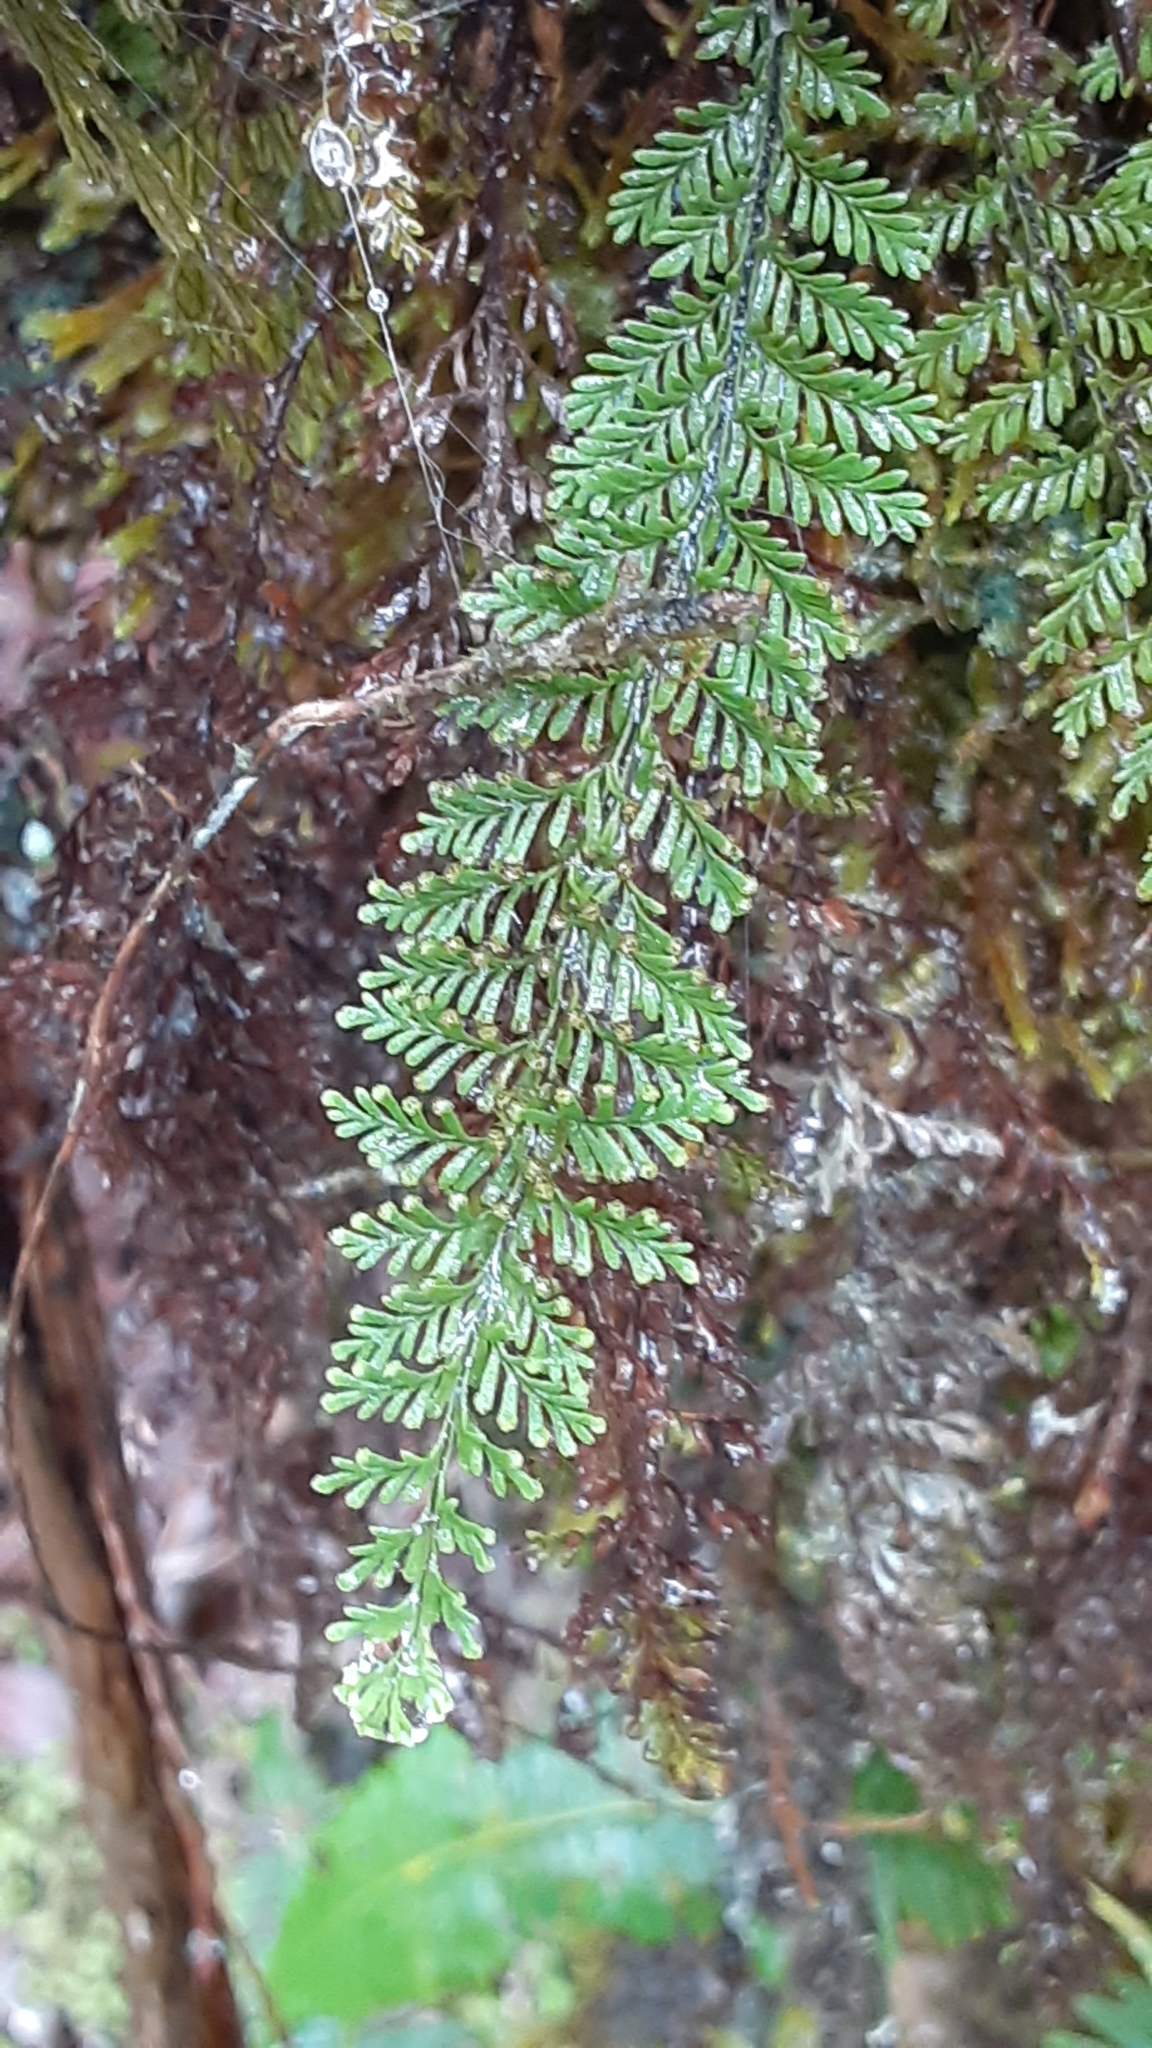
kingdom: Plantae
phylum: Tracheophyta
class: Polypodiopsida
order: Polypodiales
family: Polypodiaceae
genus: Adenophorus
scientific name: Adenophorus tamariscinus
